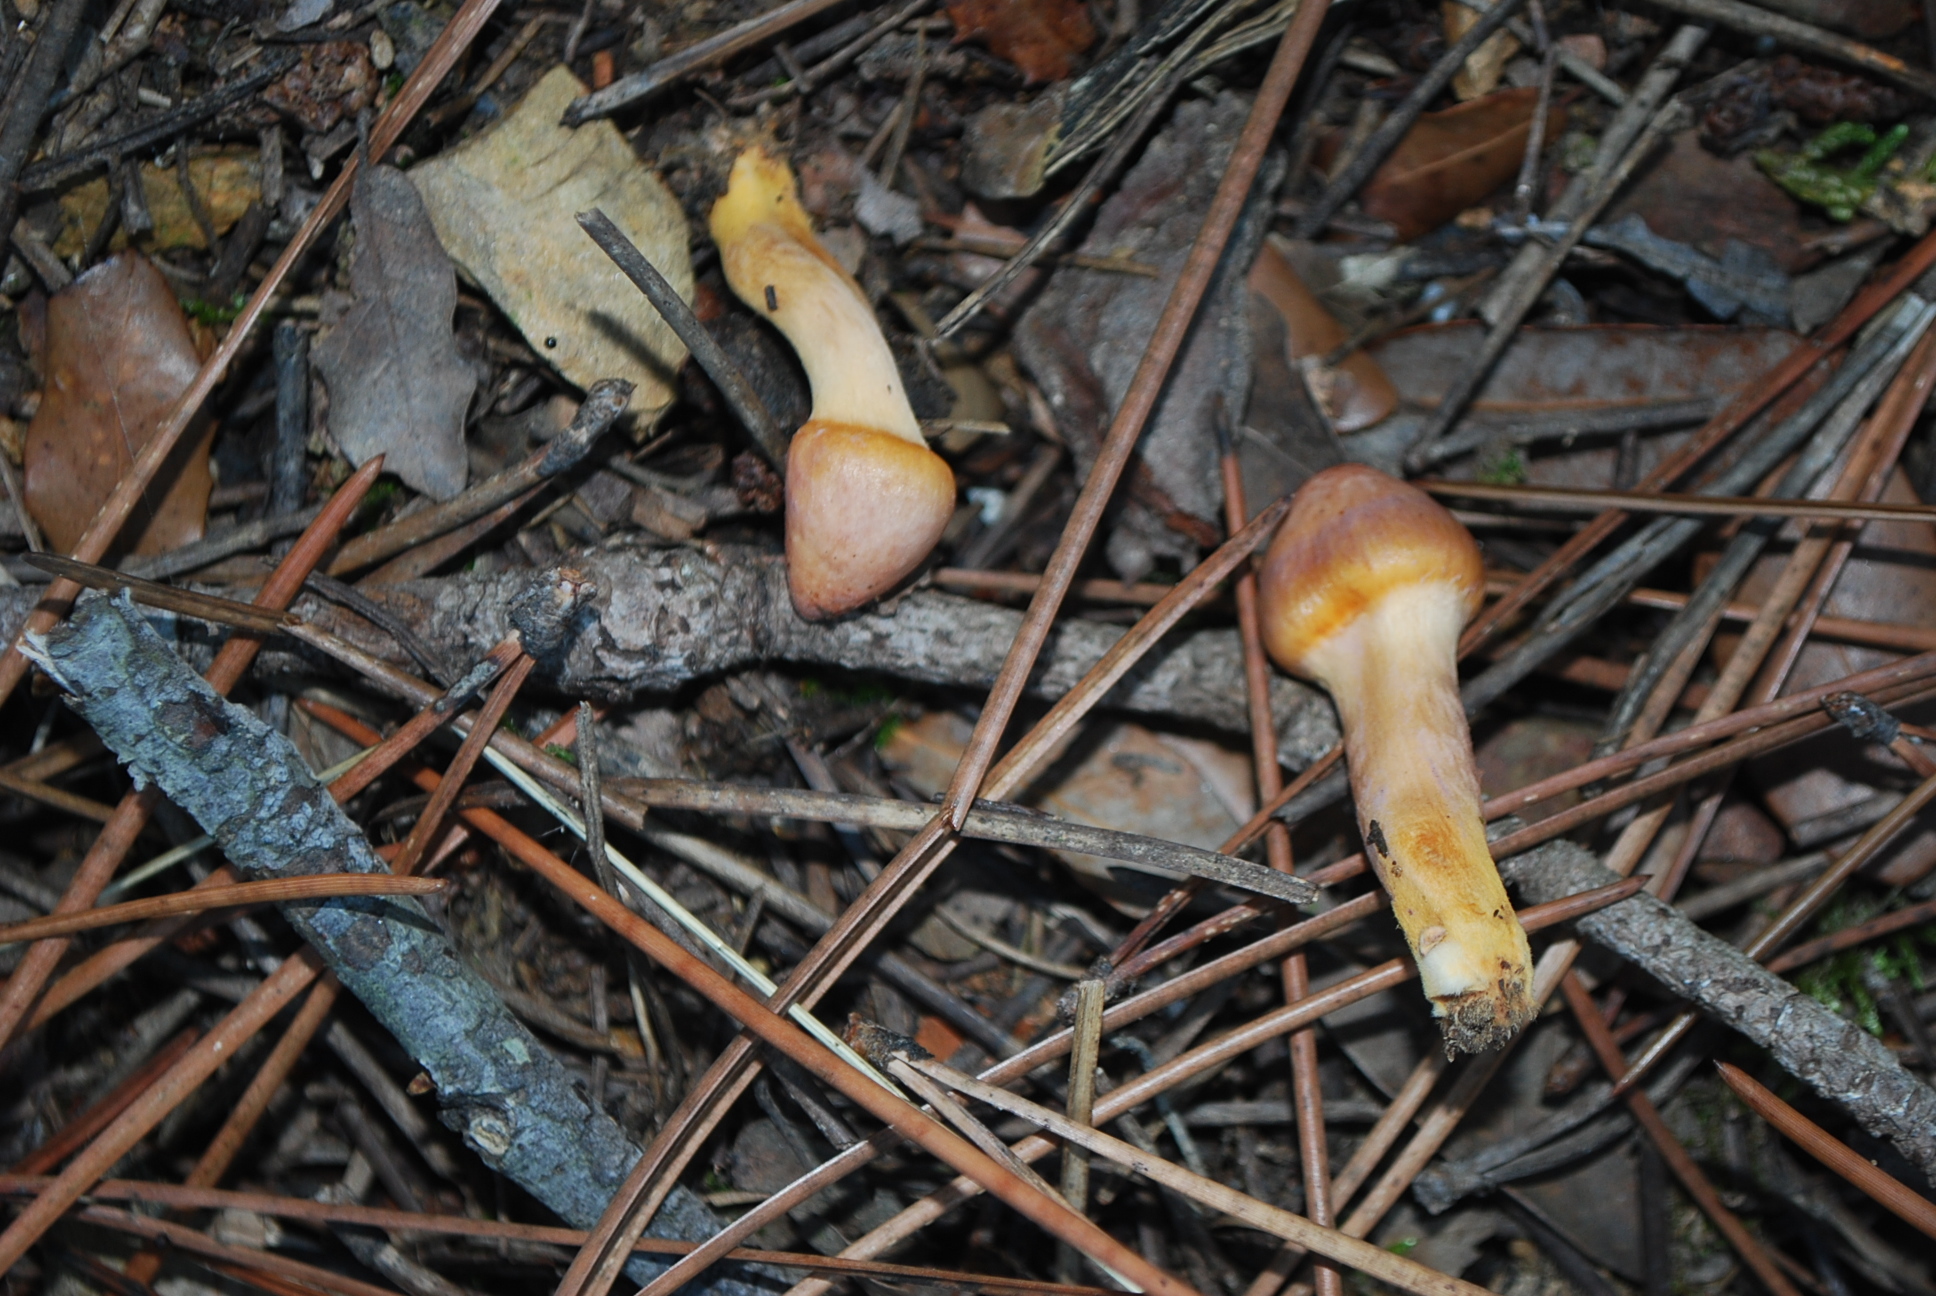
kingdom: Fungi
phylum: Basidiomycota
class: Agaricomycetes
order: Boletales
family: Gomphidiaceae
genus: Chroogomphus
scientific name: Chroogomphus rutilus
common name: Copper spike
